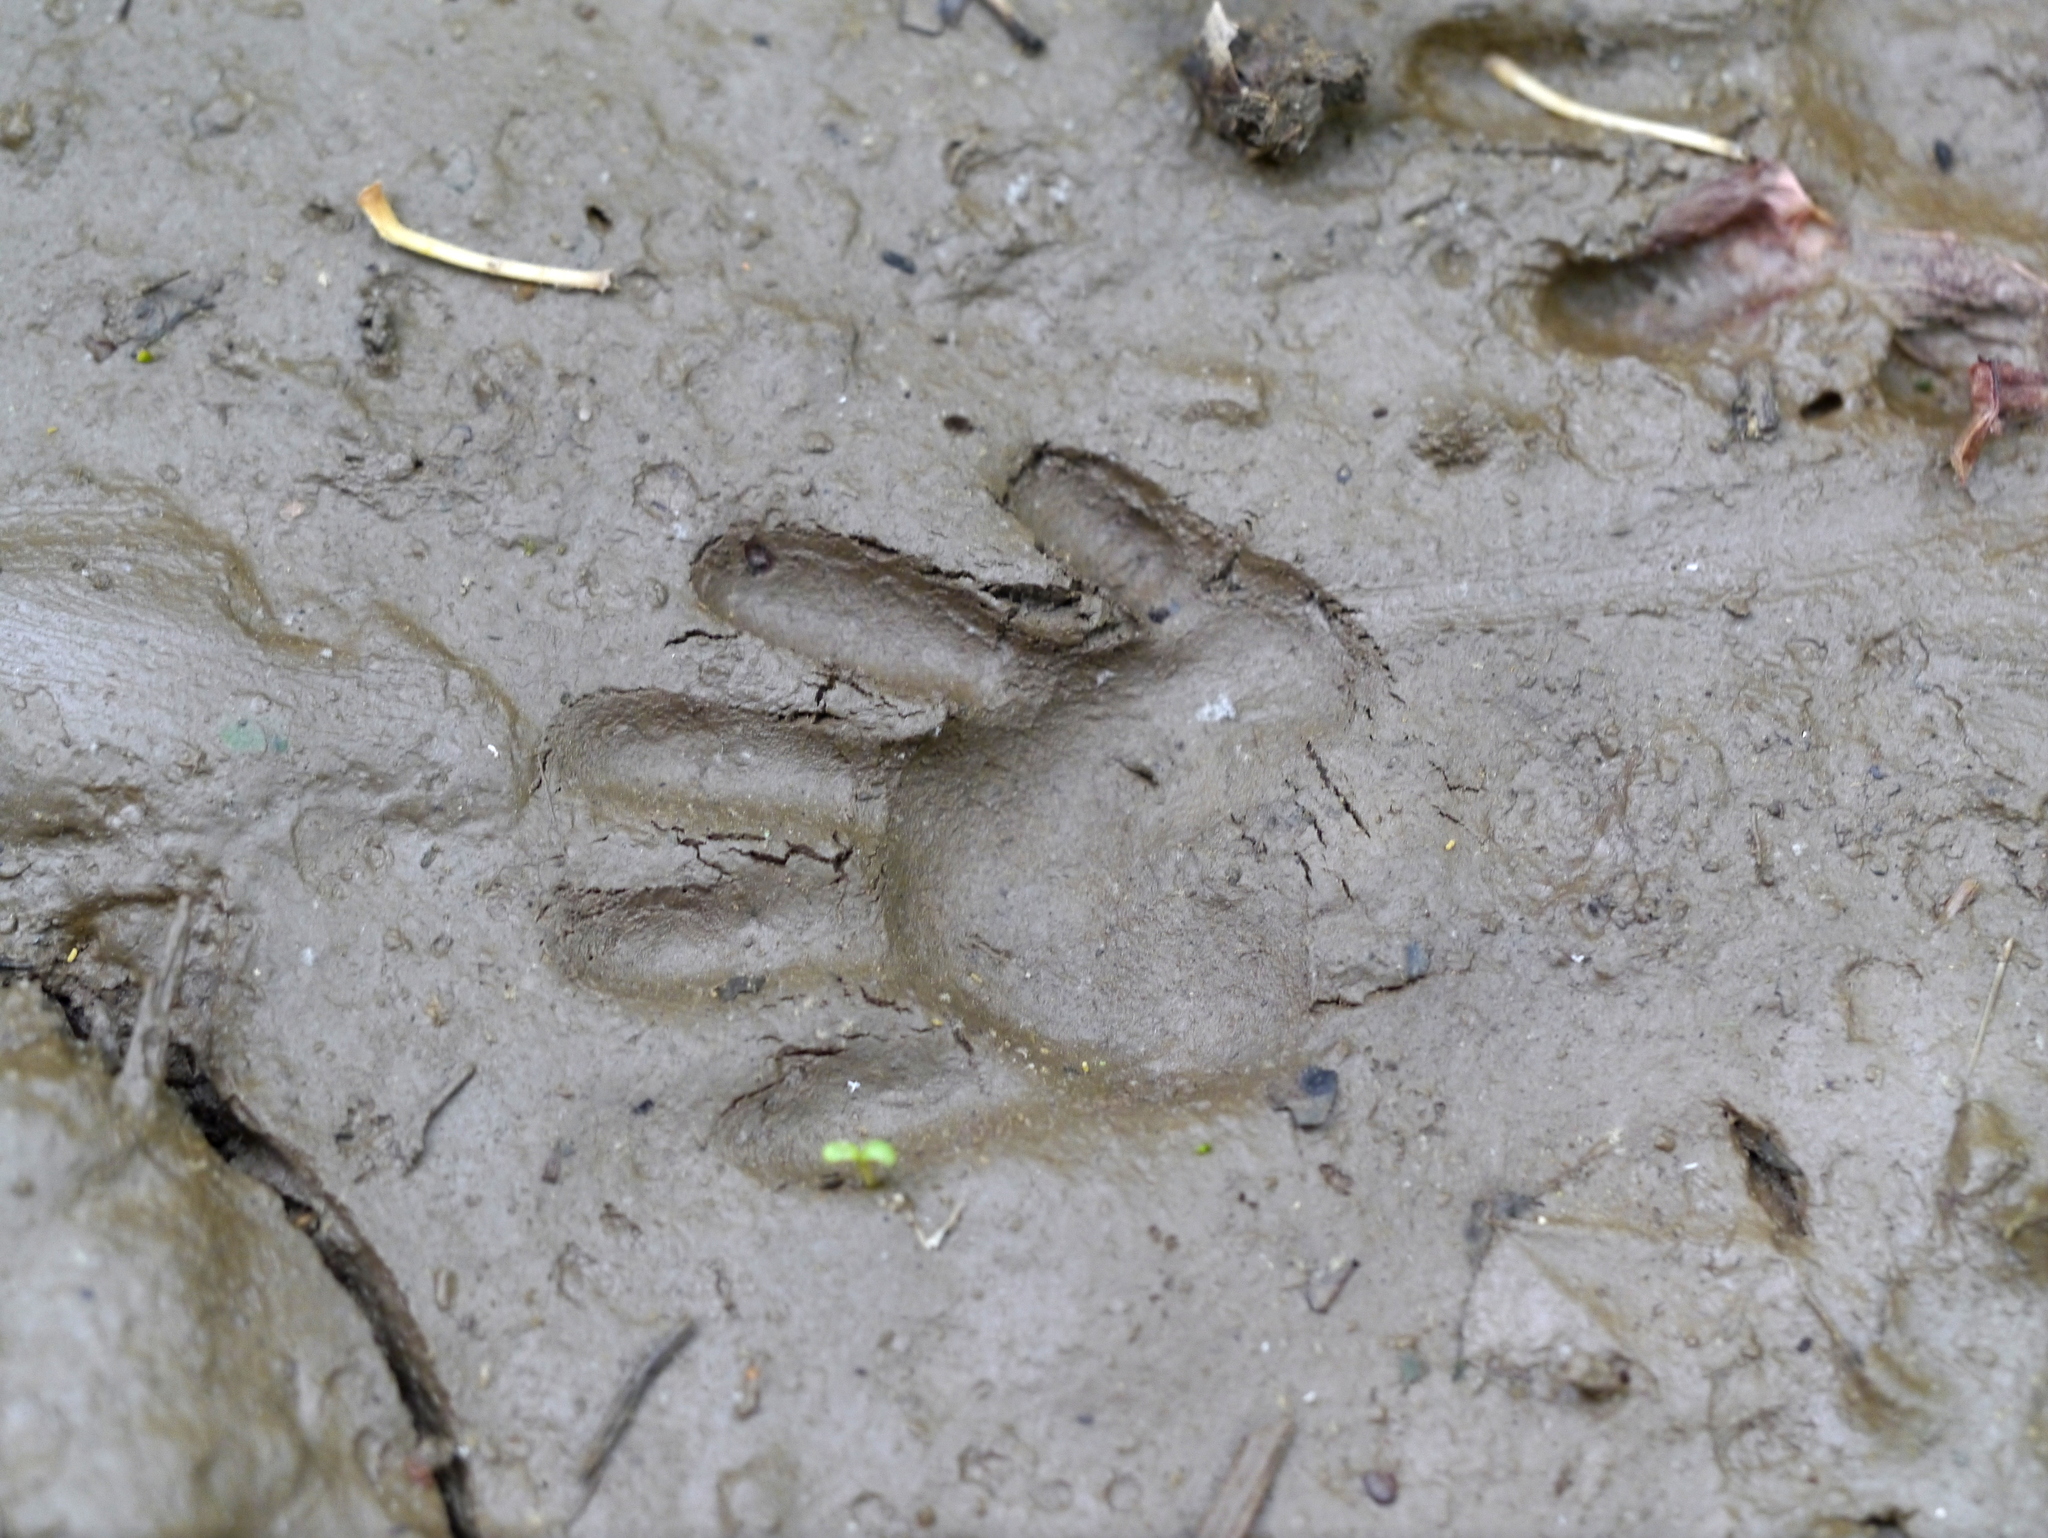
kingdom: Animalia
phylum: Chordata
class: Mammalia
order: Carnivora
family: Procyonidae
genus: Procyon
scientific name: Procyon lotor
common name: Raccoon
